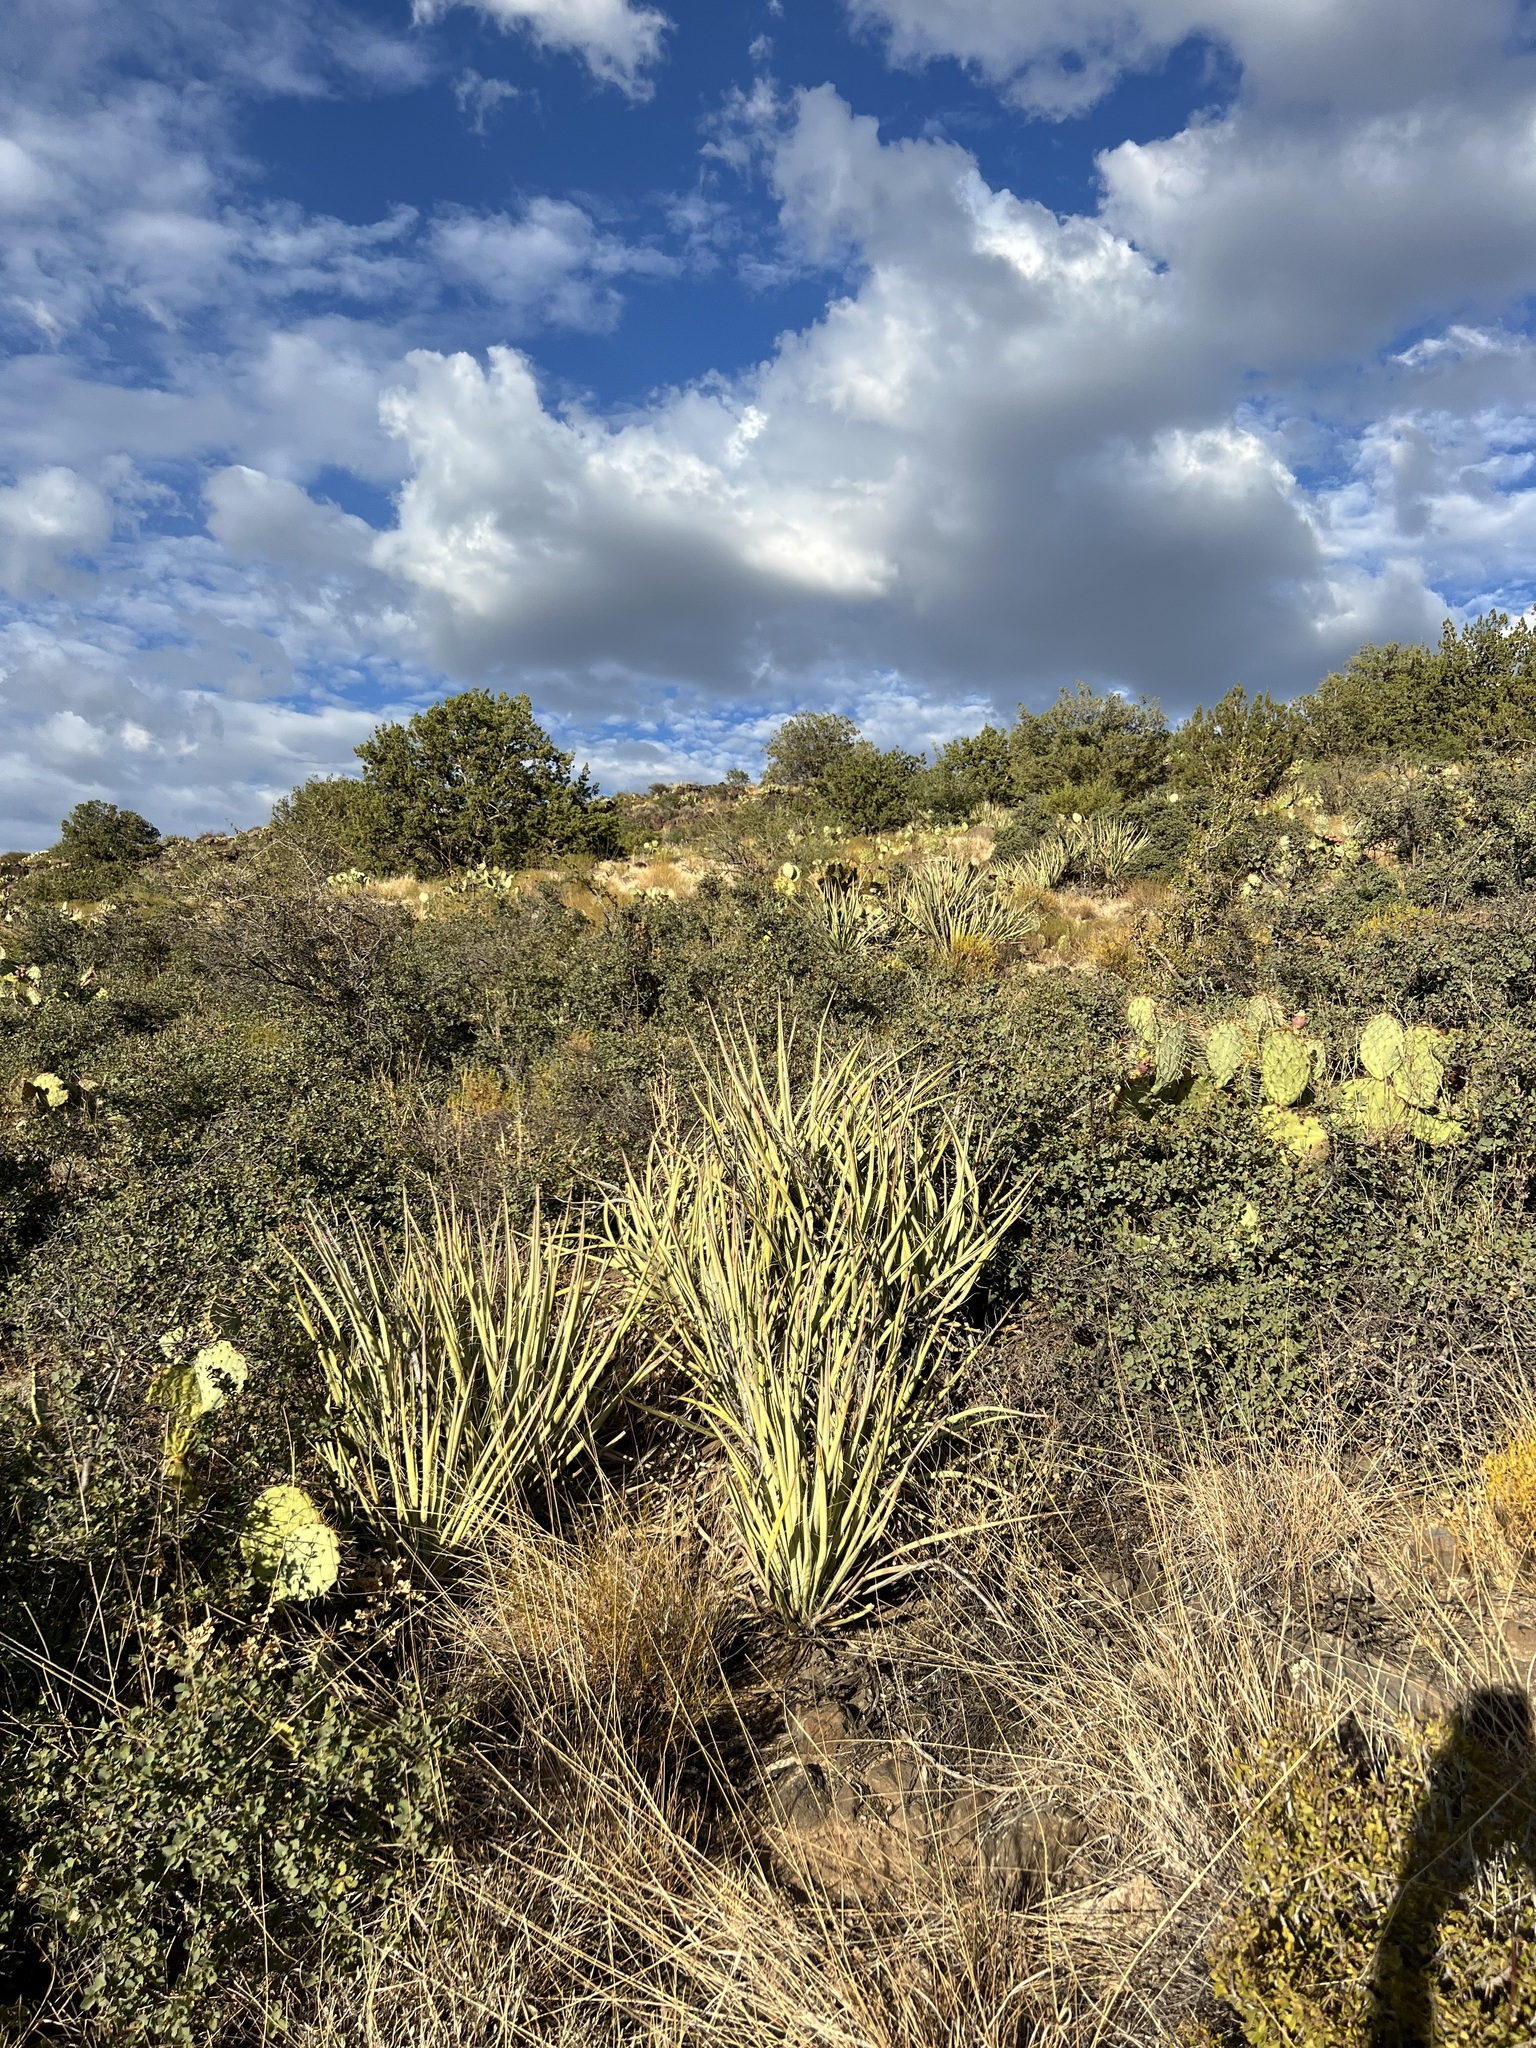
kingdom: Plantae
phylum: Tracheophyta
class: Liliopsida
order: Asparagales
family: Asparagaceae
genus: Yucca
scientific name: Yucca baccata
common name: Banana yucca
